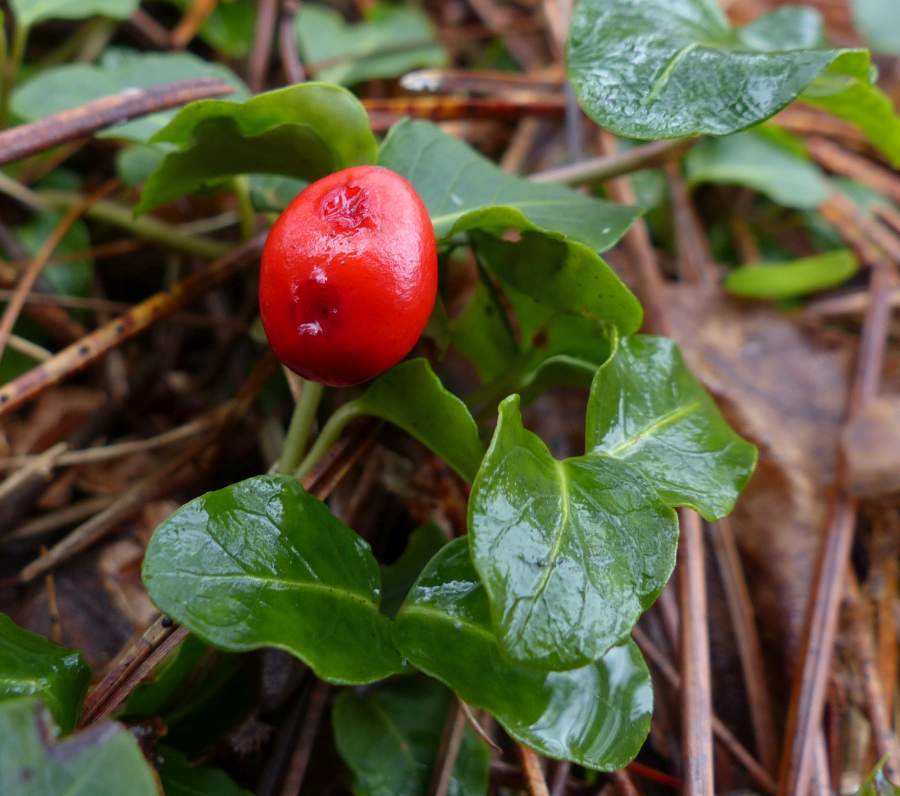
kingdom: Plantae
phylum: Tracheophyta
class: Magnoliopsida
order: Gentianales
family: Rubiaceae
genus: Mitchella
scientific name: Mitchella repens
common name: Partridge-berry
